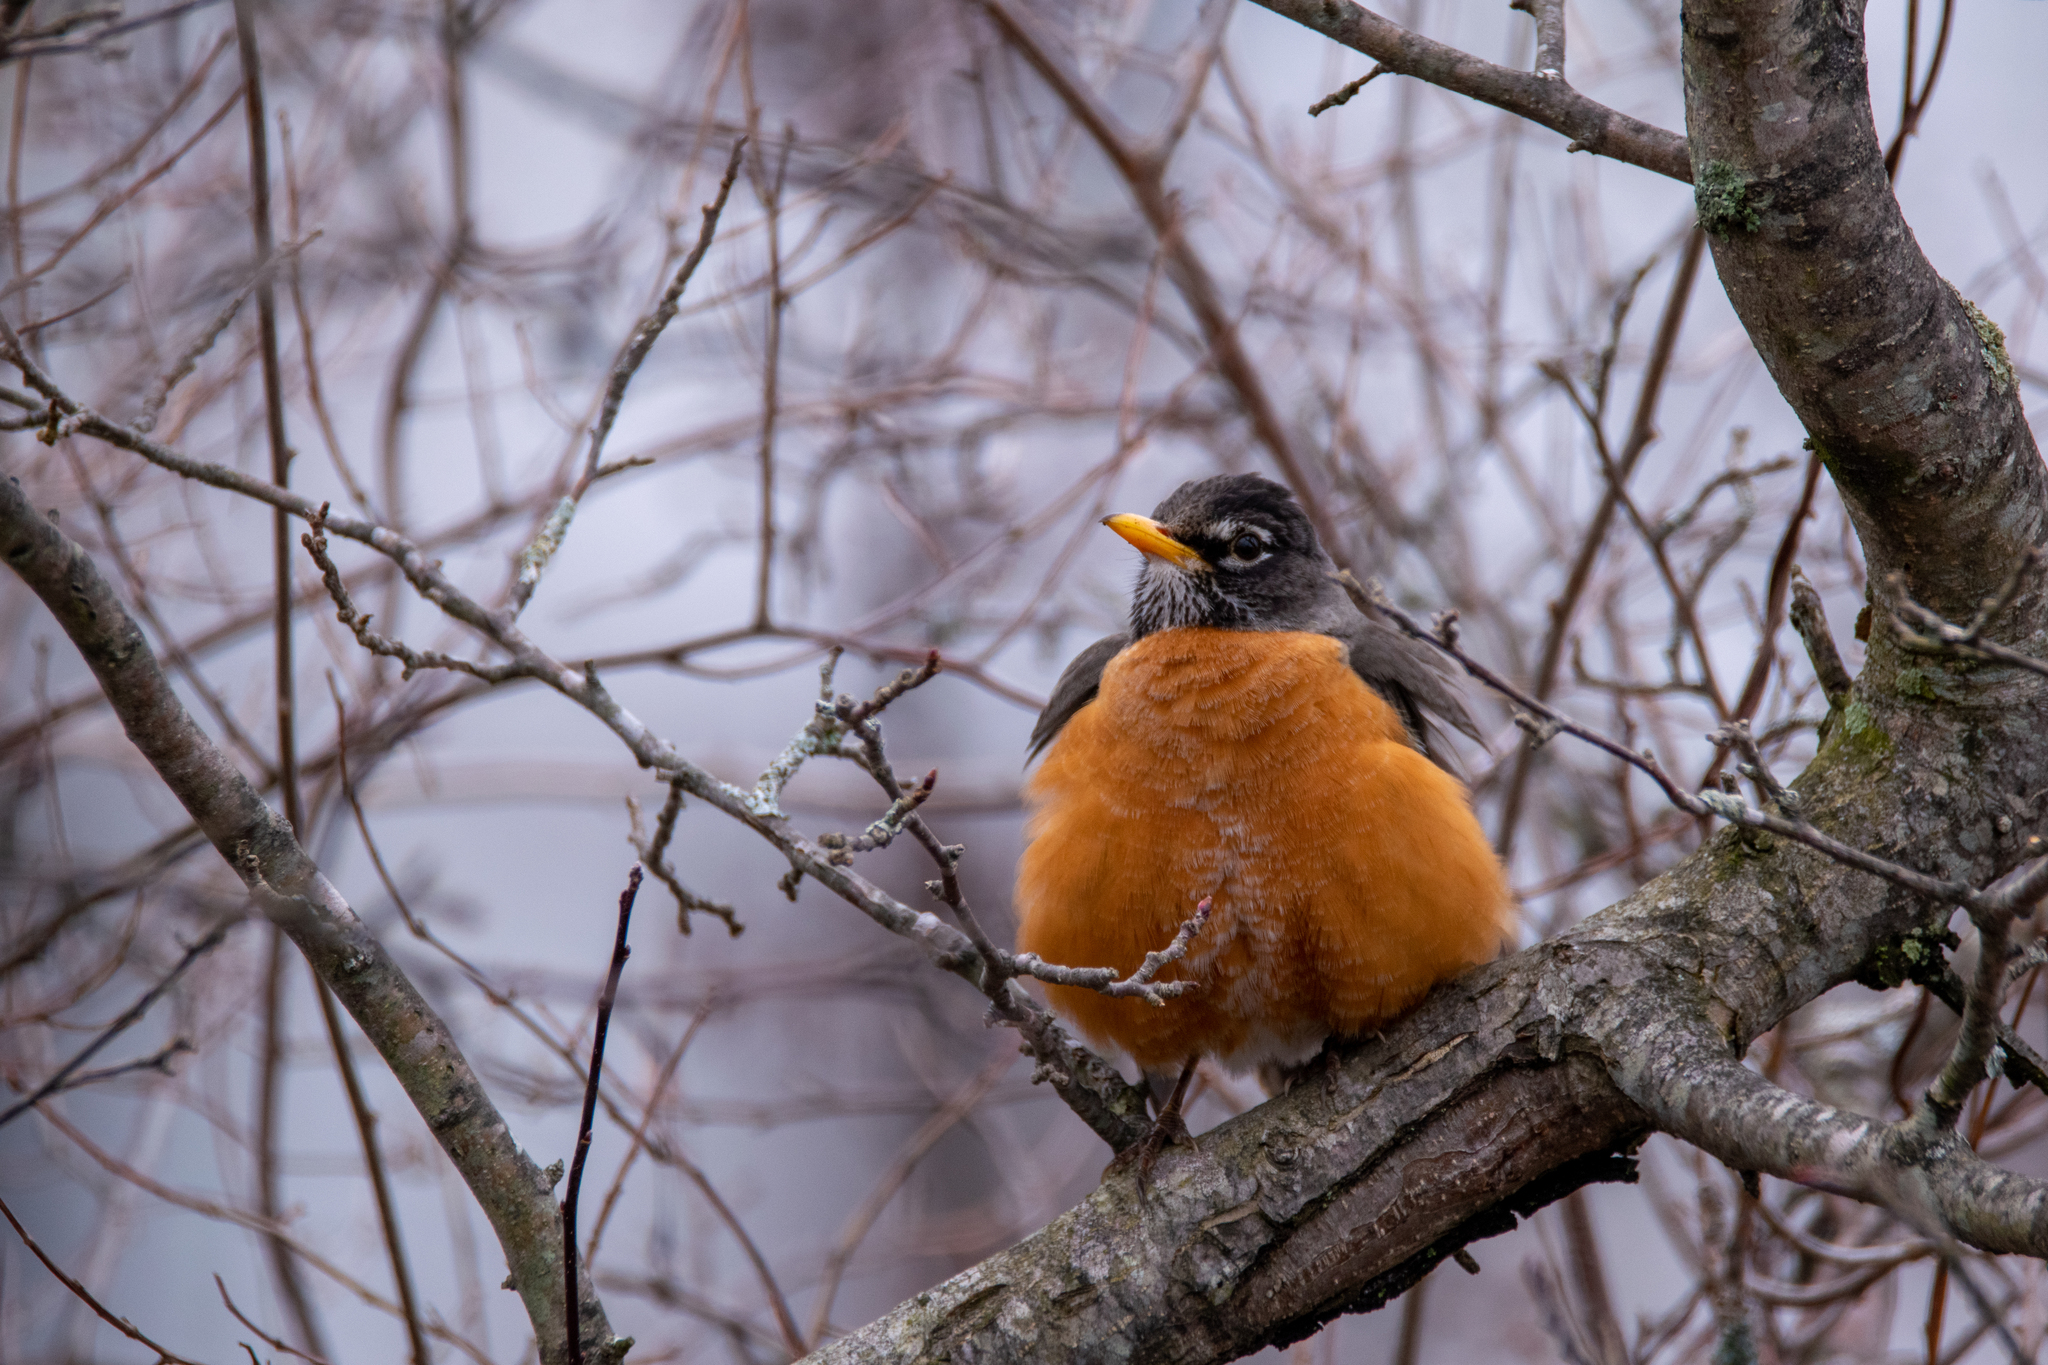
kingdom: Animalia
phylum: Chordata
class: Aves
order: Passeriformes
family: Turdidae
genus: Turdus
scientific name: Turdus migratorius
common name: American robin
